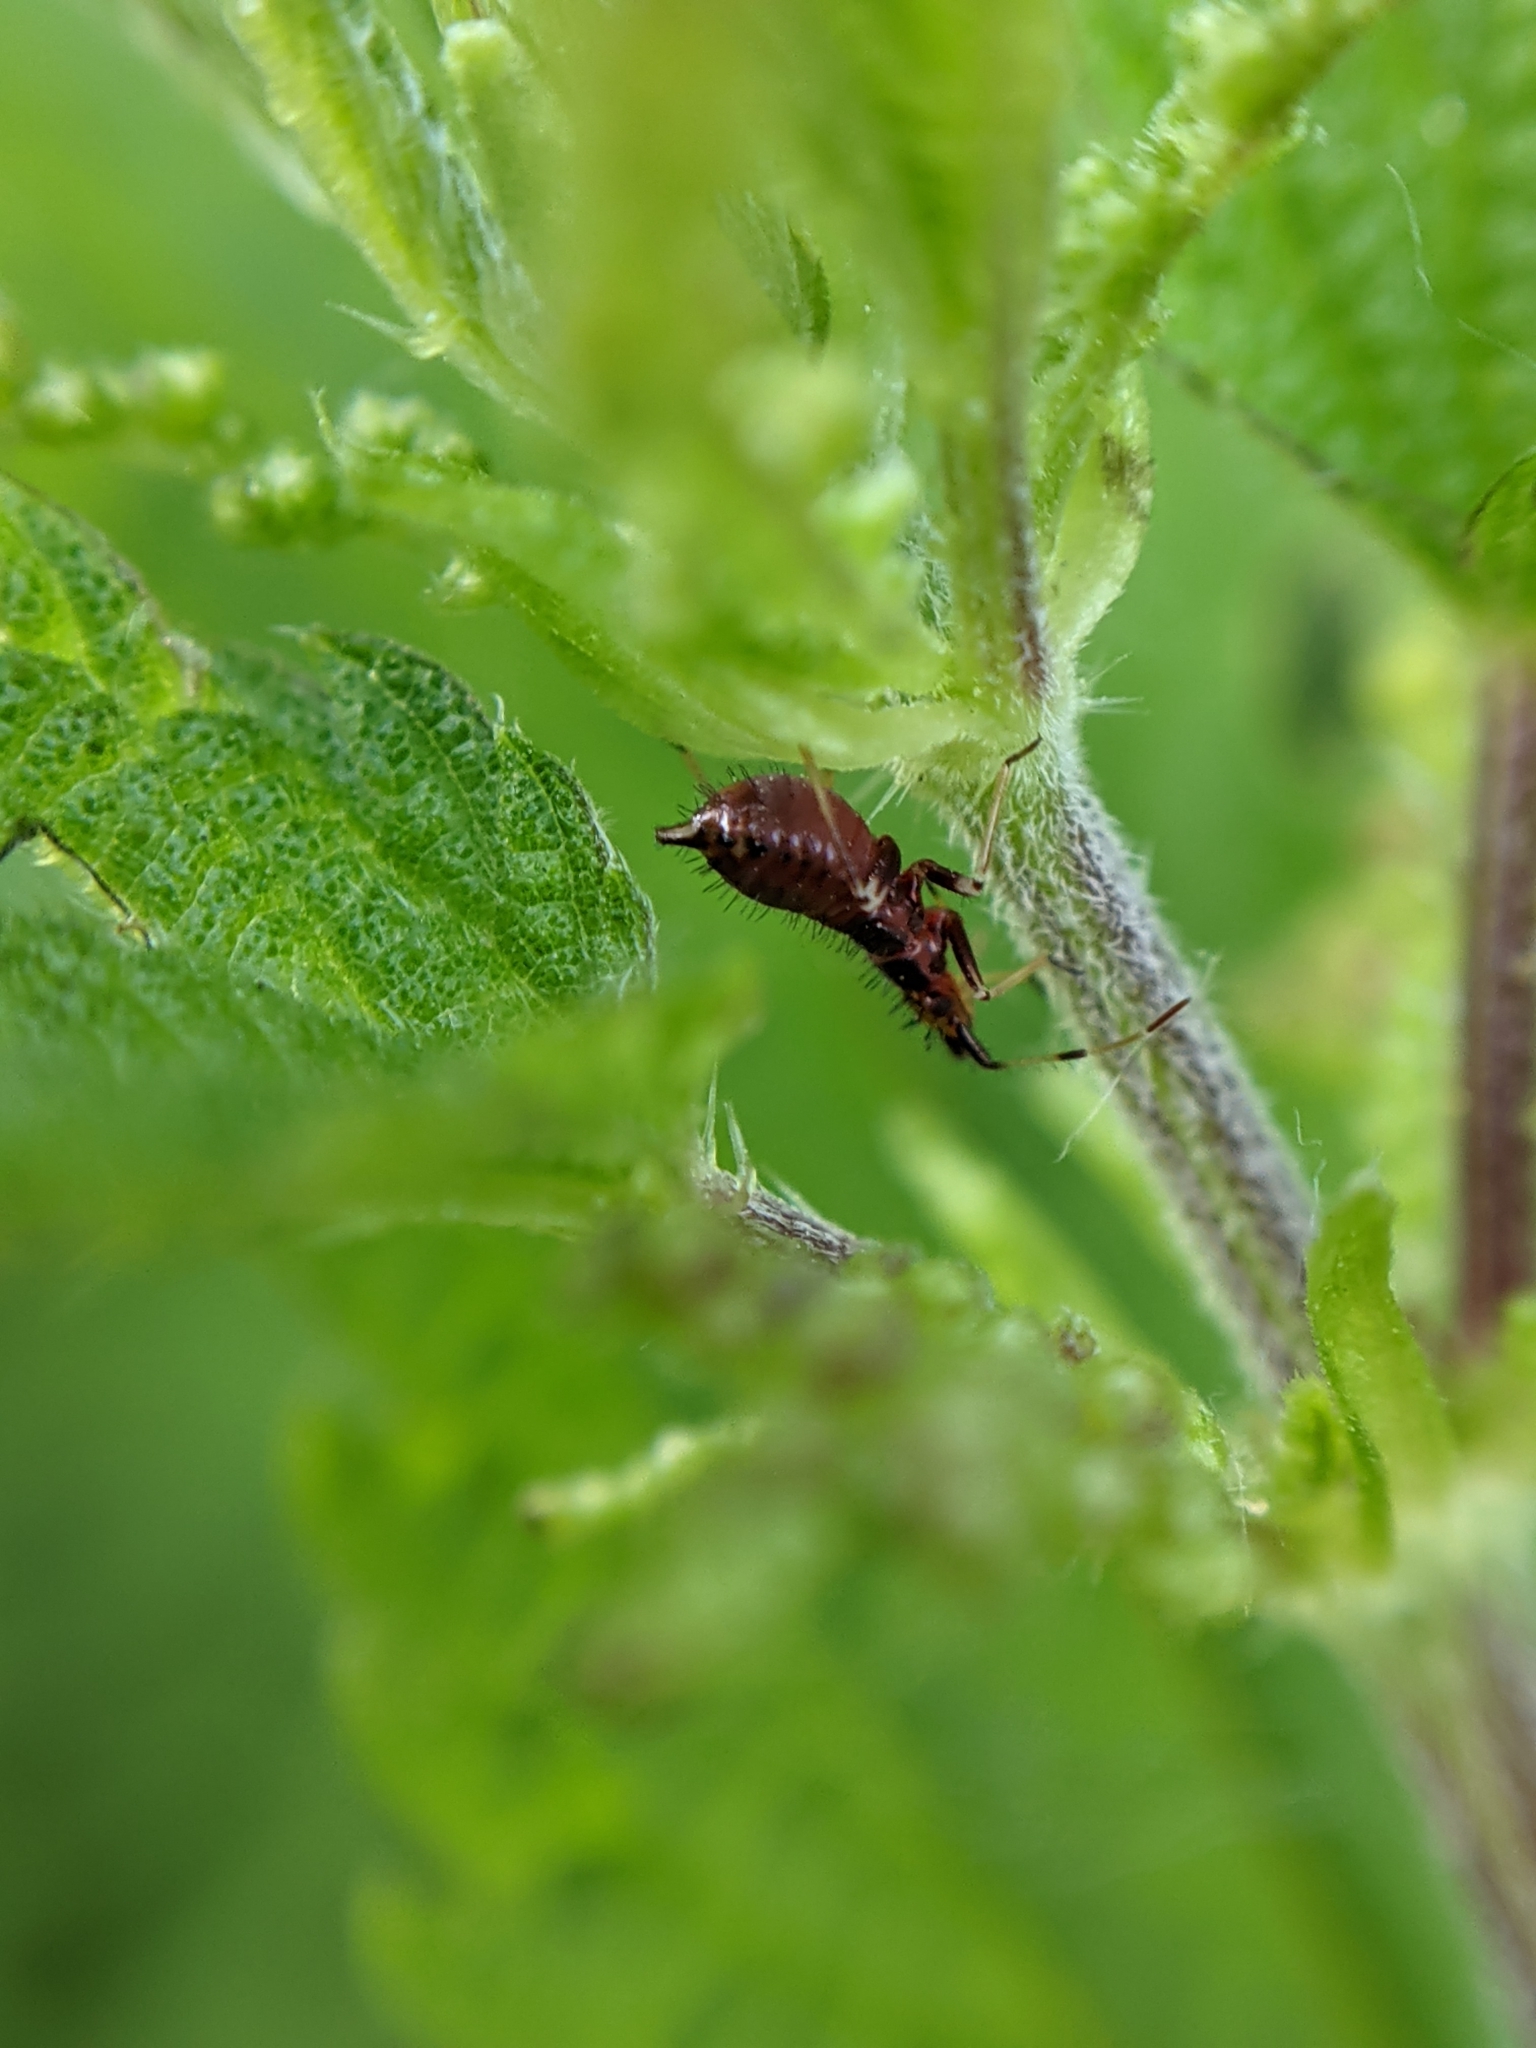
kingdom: Animalia
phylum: Arthropoda
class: Insecta
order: Hemiptera
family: Miridae
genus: Deraeocoris
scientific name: Deraeocoris ruber
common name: Plant bug
